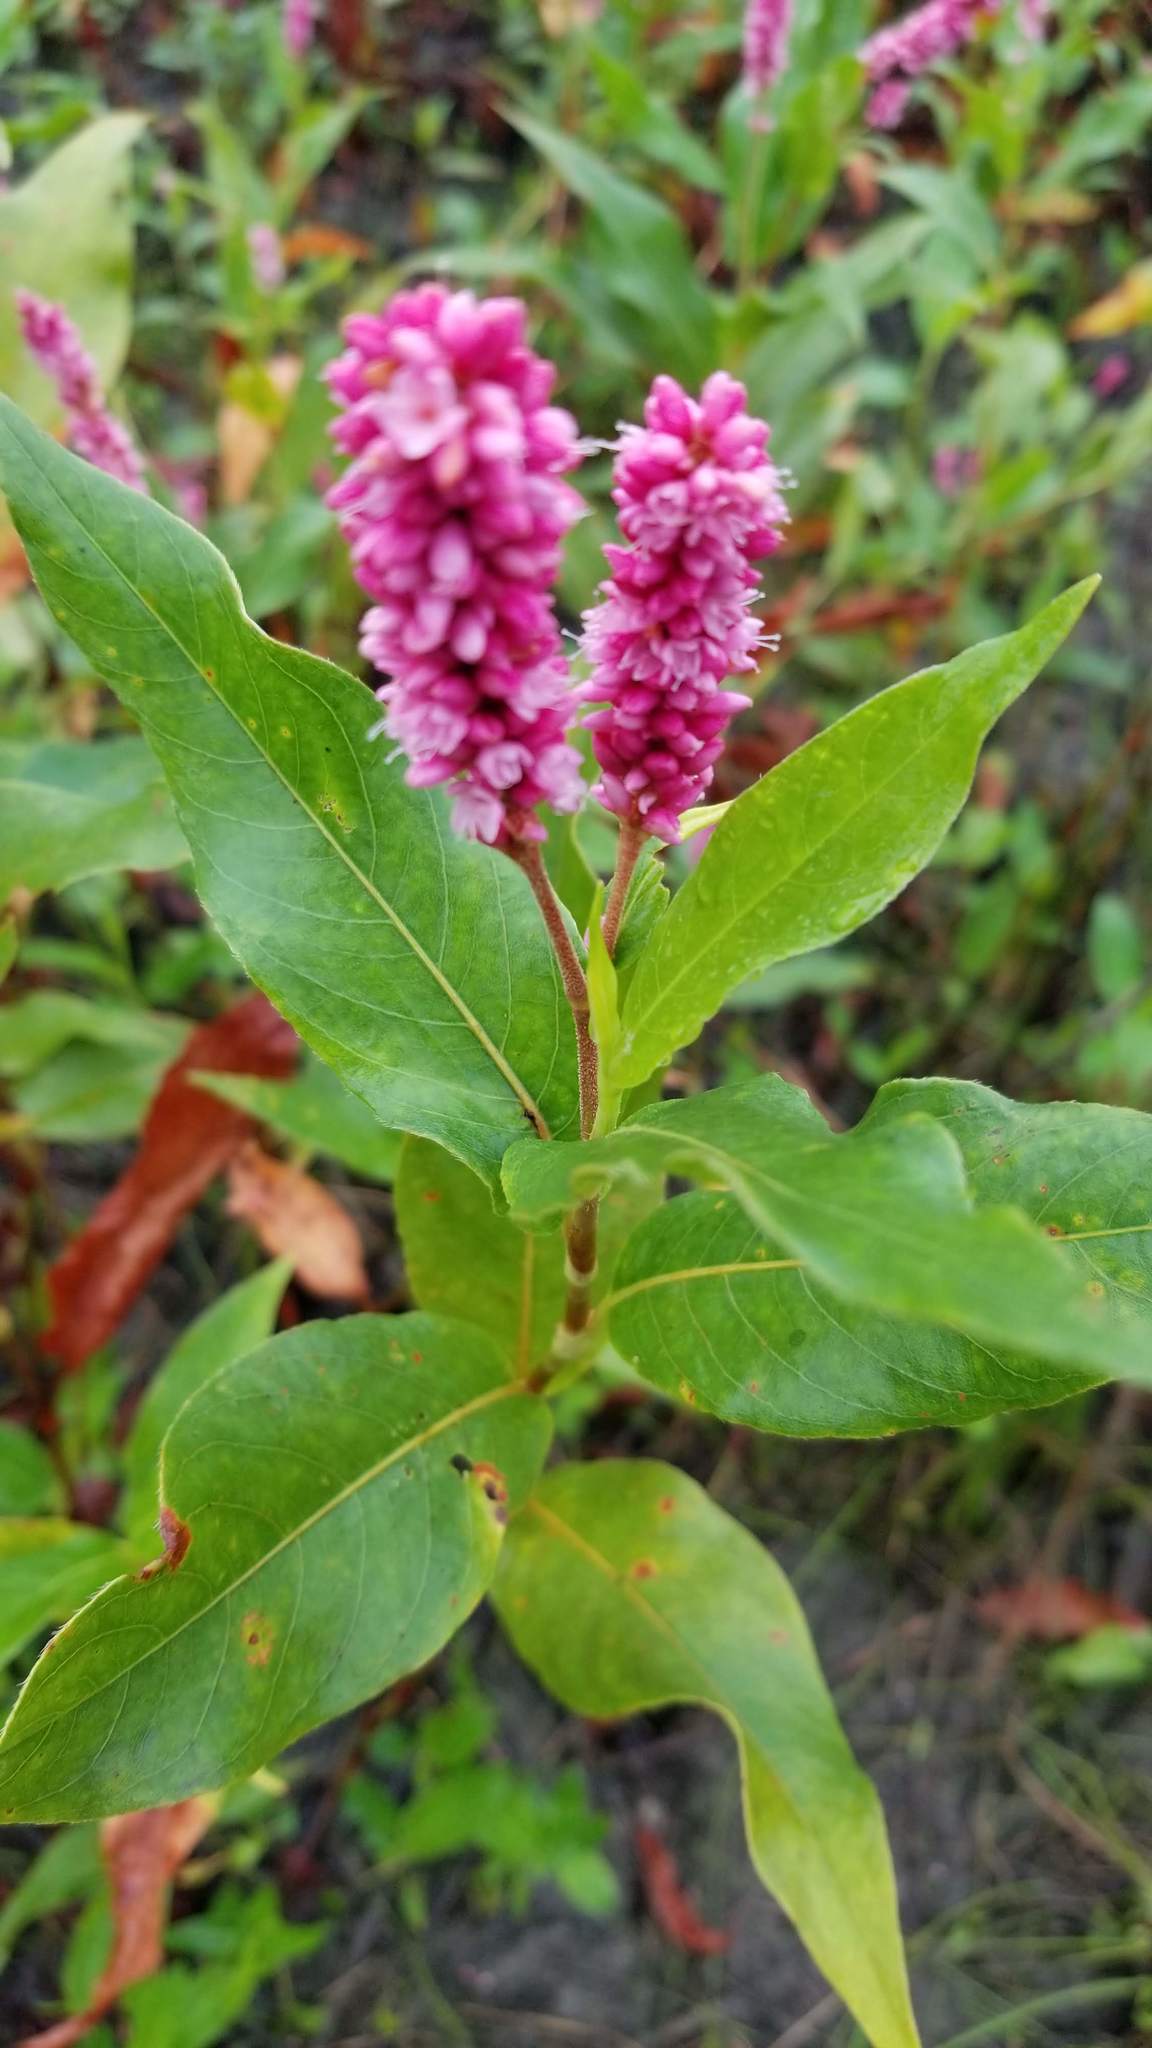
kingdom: Plantae
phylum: Tracheophyta
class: Magnoliopsida
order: Caryophyllales
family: Polygonaceae
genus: Persicaria
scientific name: Persicaria amphibia
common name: Amphibious bistort
